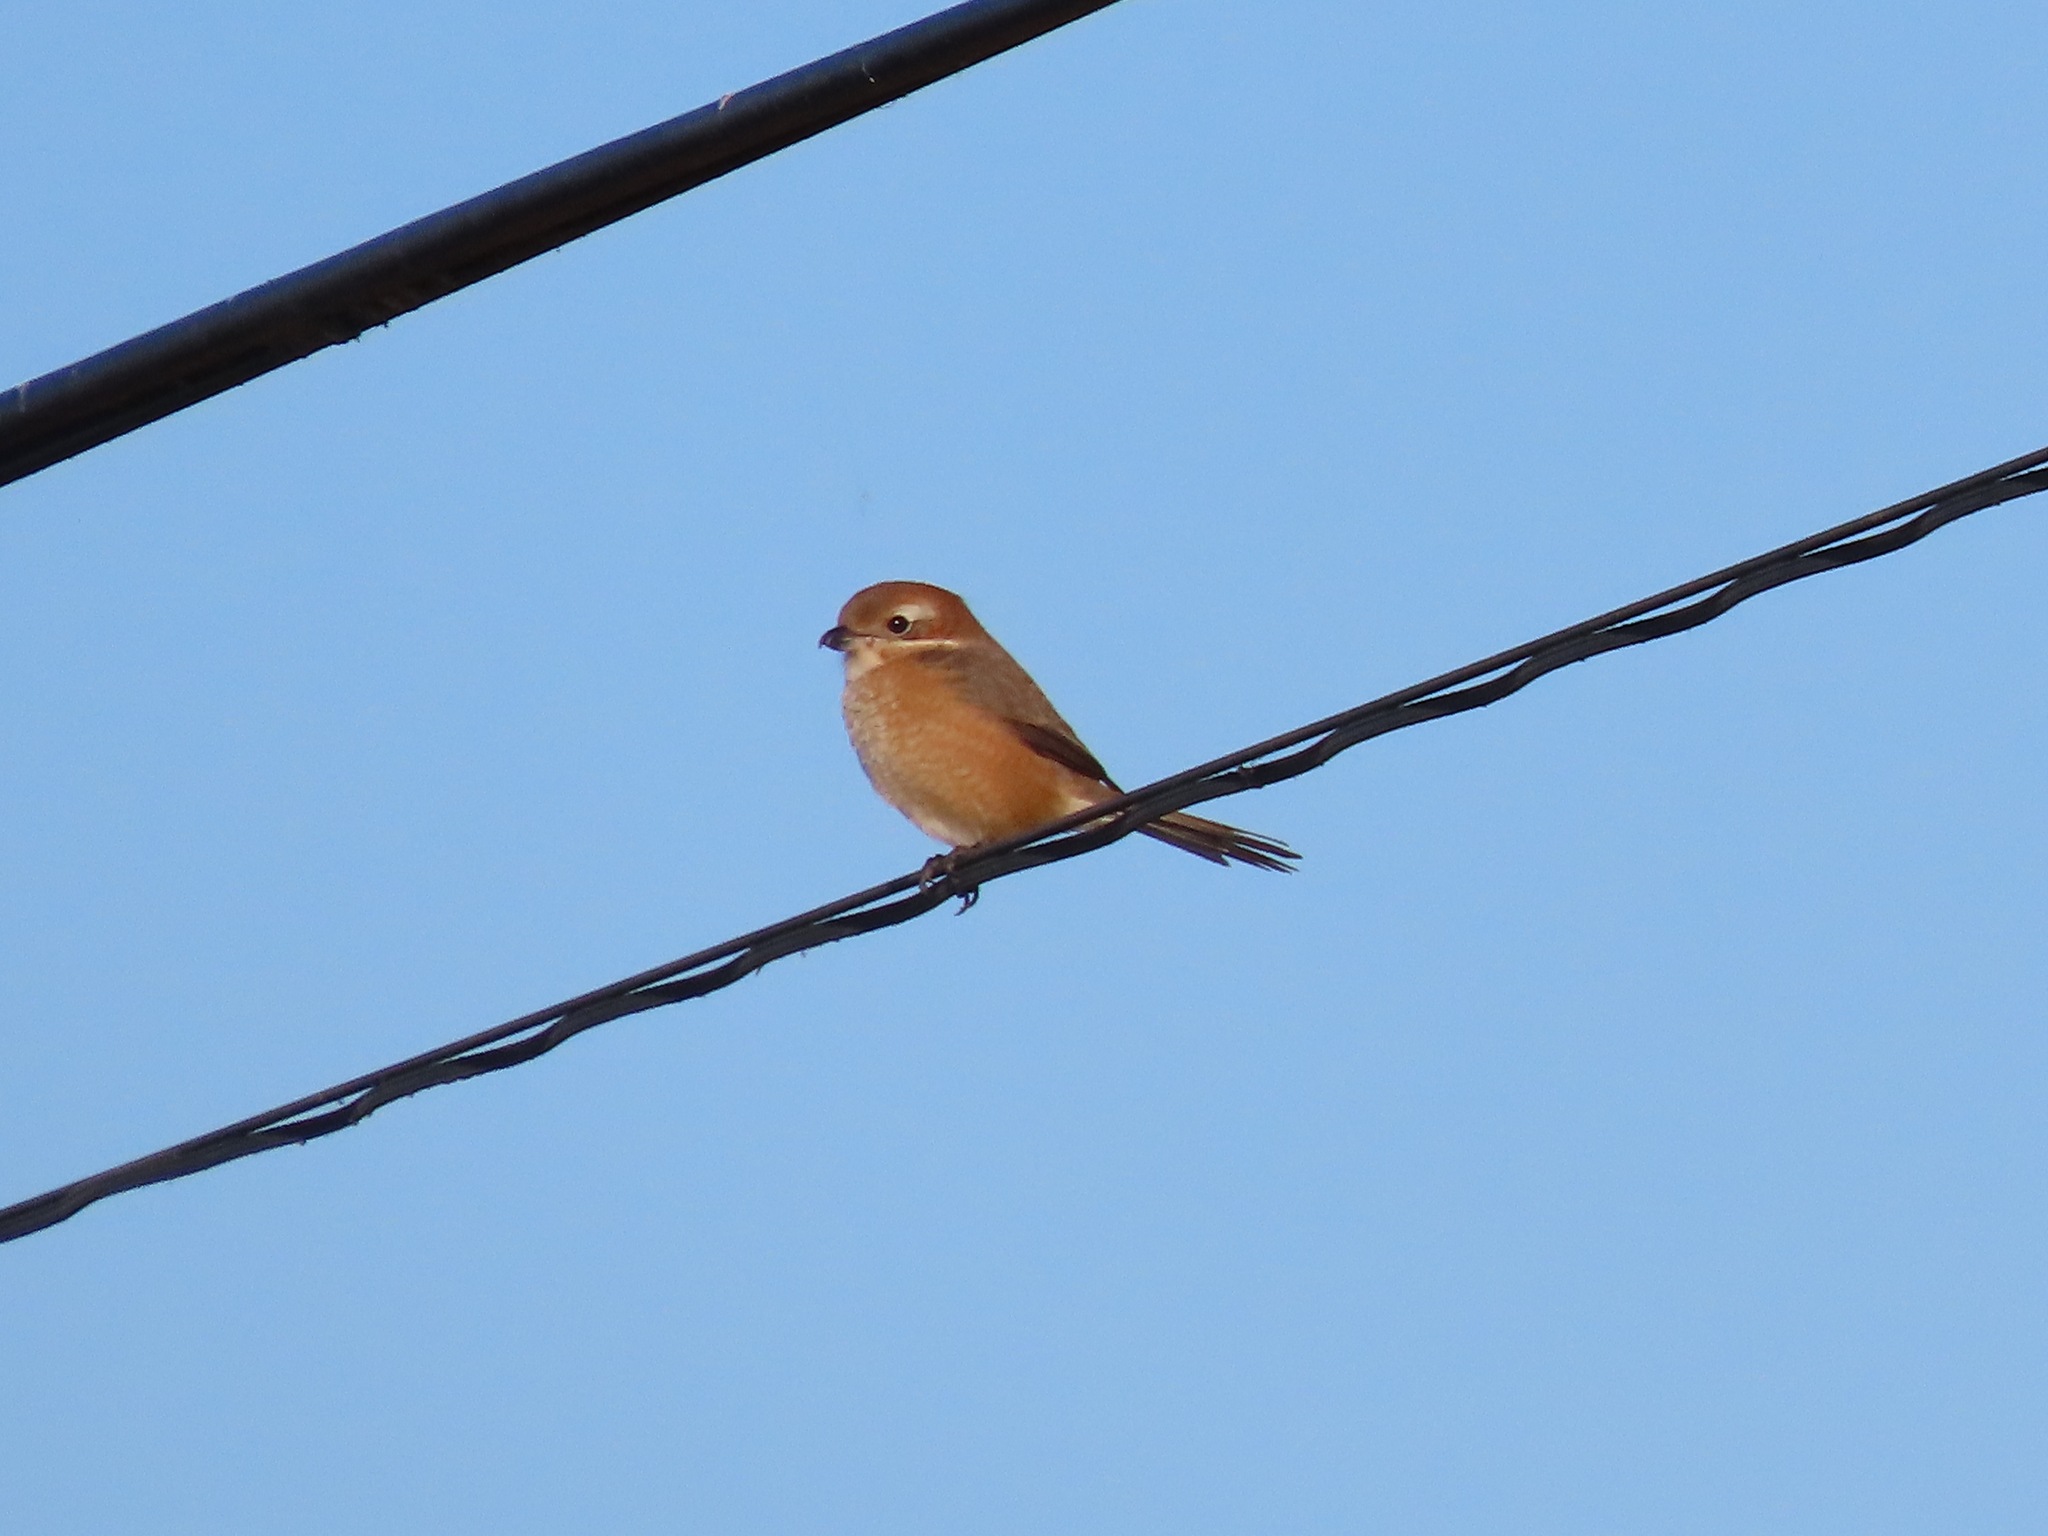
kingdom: Animalia
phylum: Chordata
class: Aves
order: Passeriformes
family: Laniidae
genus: Lanius
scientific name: Lanius bucephalus
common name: Bull-headed shrike
